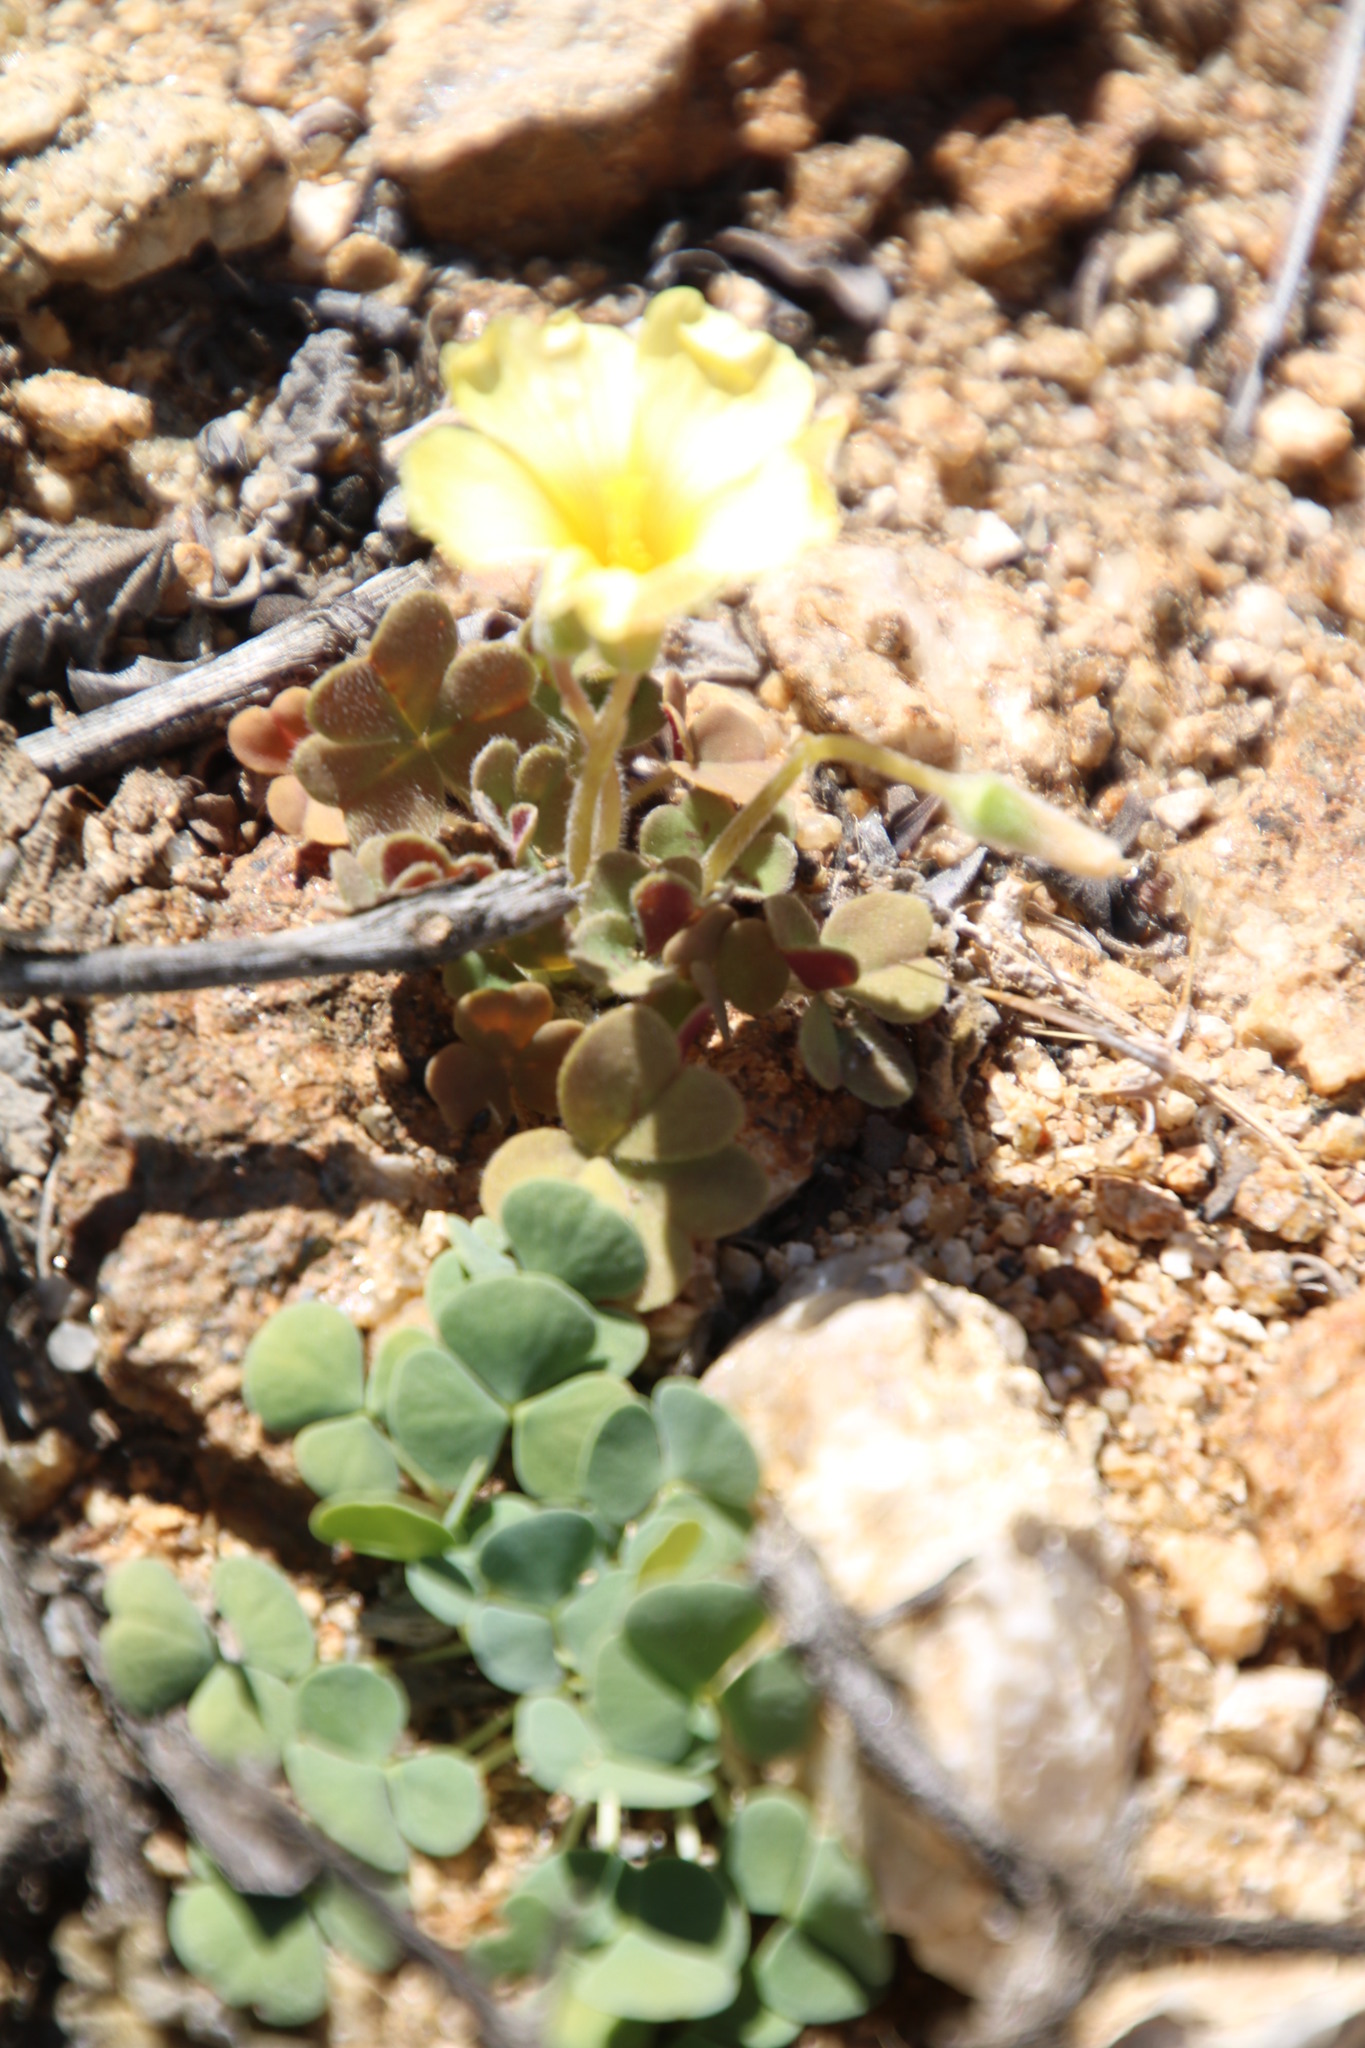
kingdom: Plantae
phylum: Tracheophyta
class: Magnoliopsida
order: Oxalidales
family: Oxalidaceae
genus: Oxalis
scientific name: Oxalis obtusa
